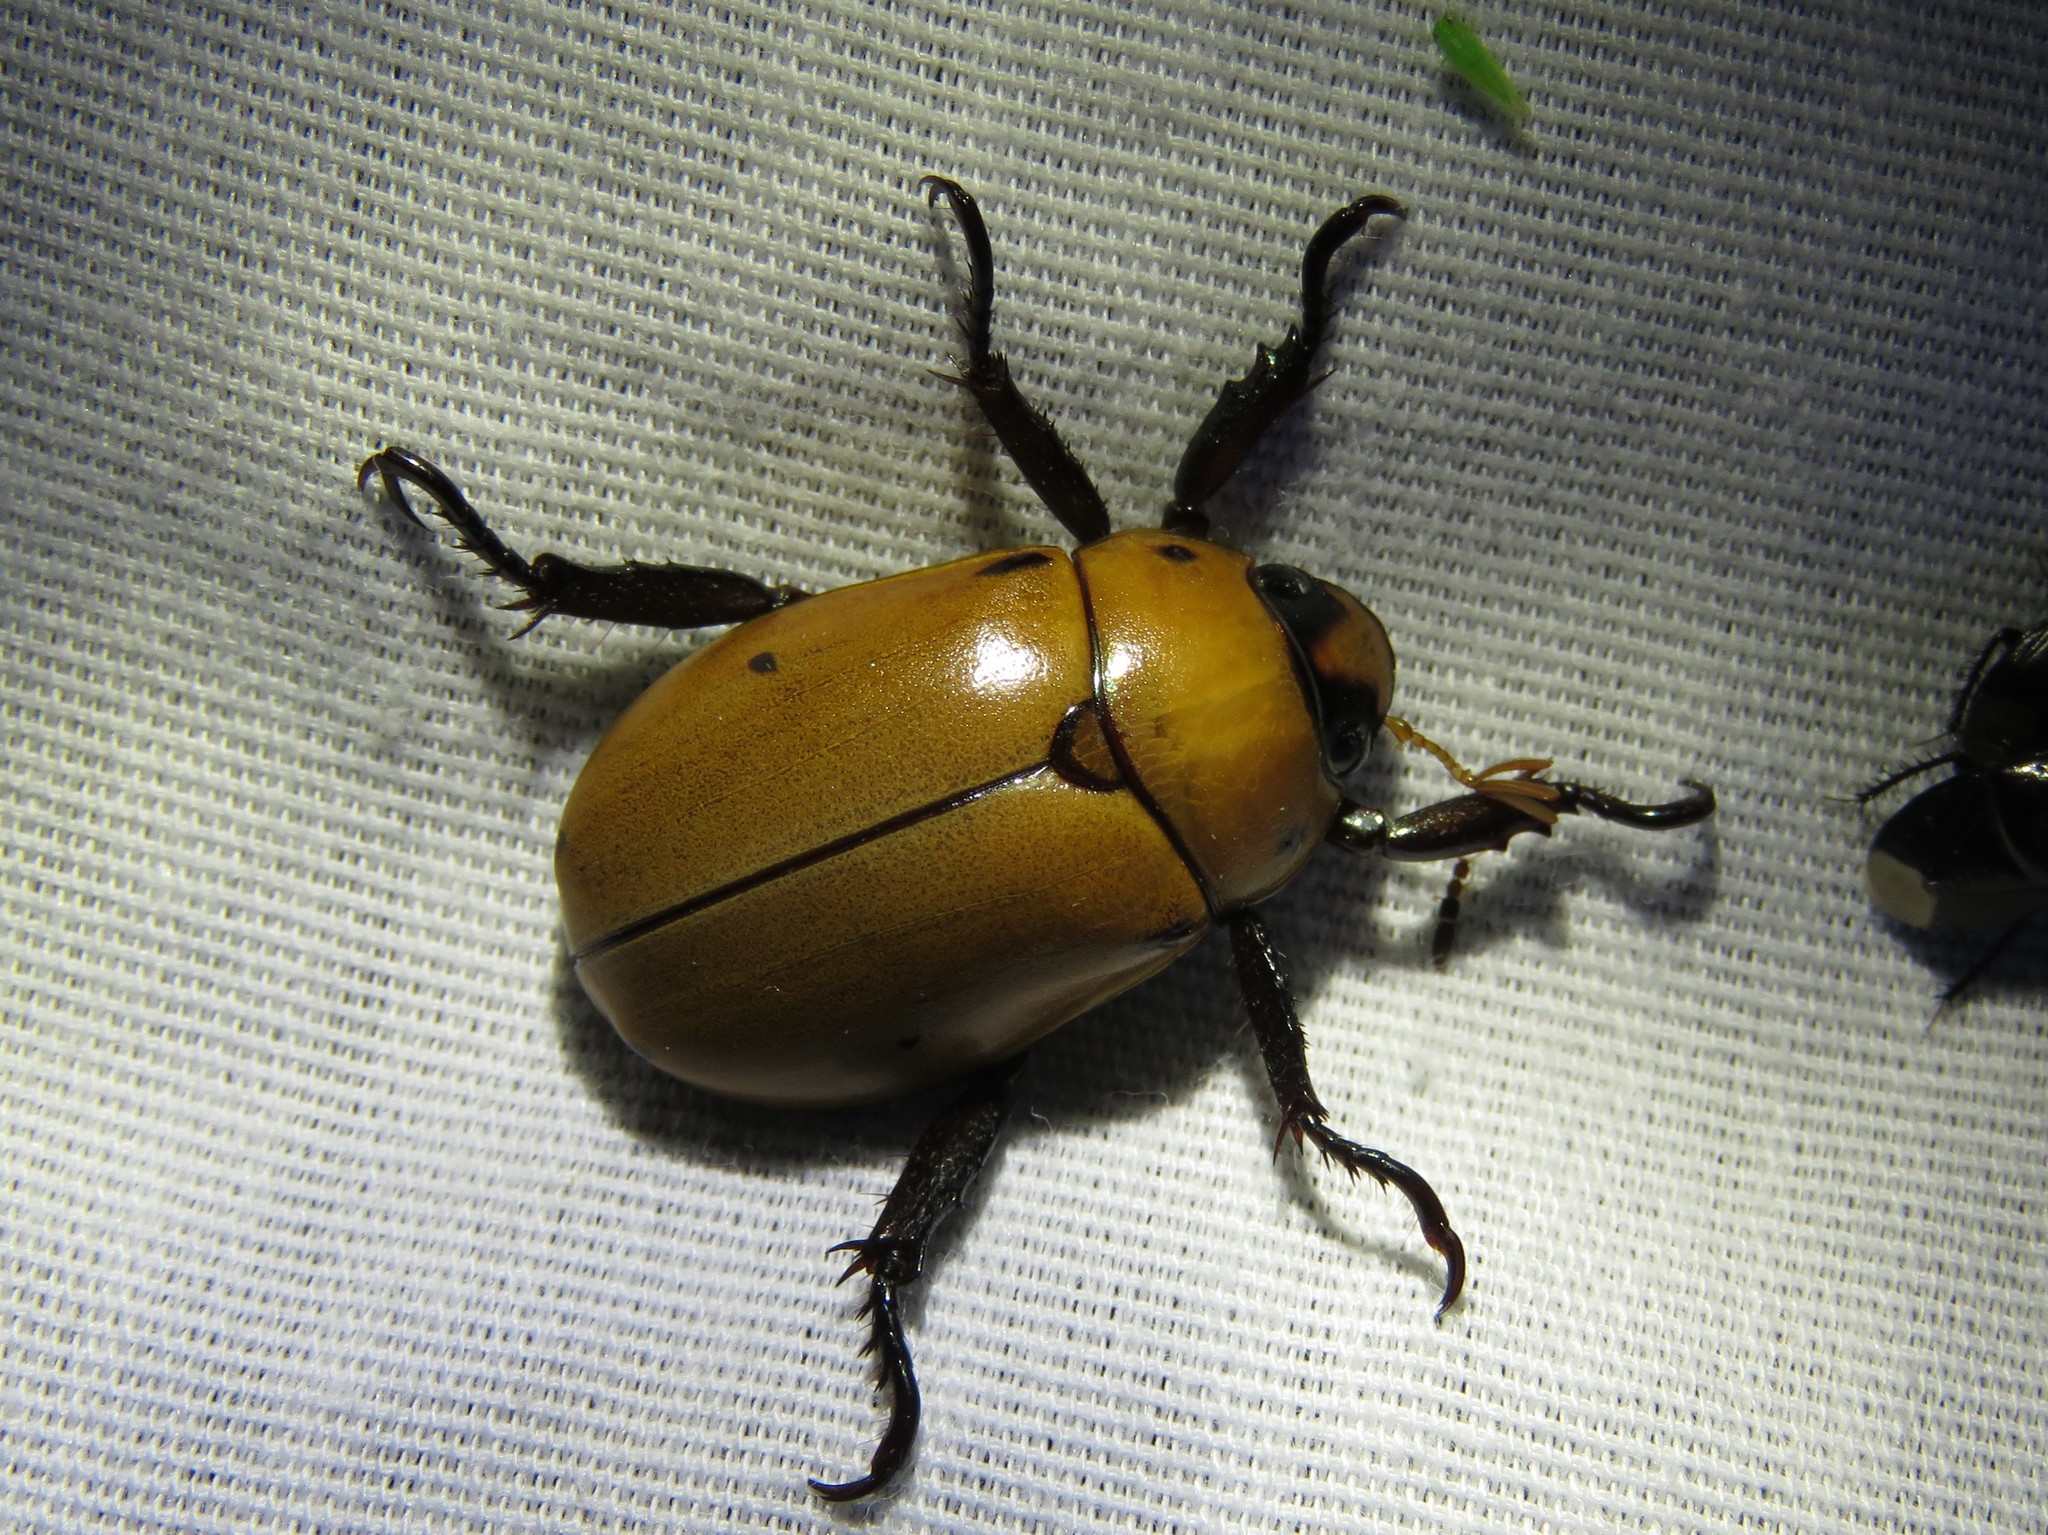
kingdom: Animalia
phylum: Arthropoda
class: Insecta
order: Coleoptera
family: Scarabaeidae
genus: Pelidnota
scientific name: Pelidnota punctata
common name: Grapevine beetle
